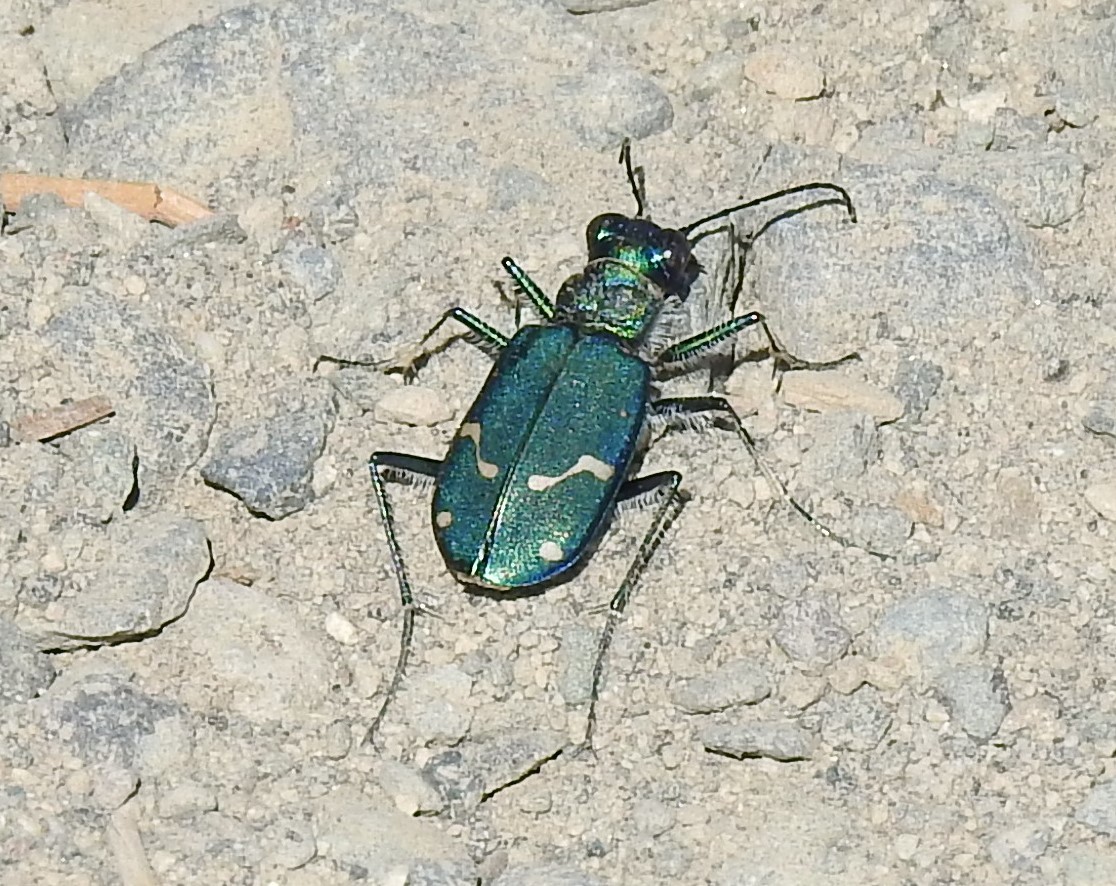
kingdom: Animalia
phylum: Arthropoda
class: Insecta
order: Coleoptera
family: Carabidae
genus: Cicindela
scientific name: Cicindela depressula
